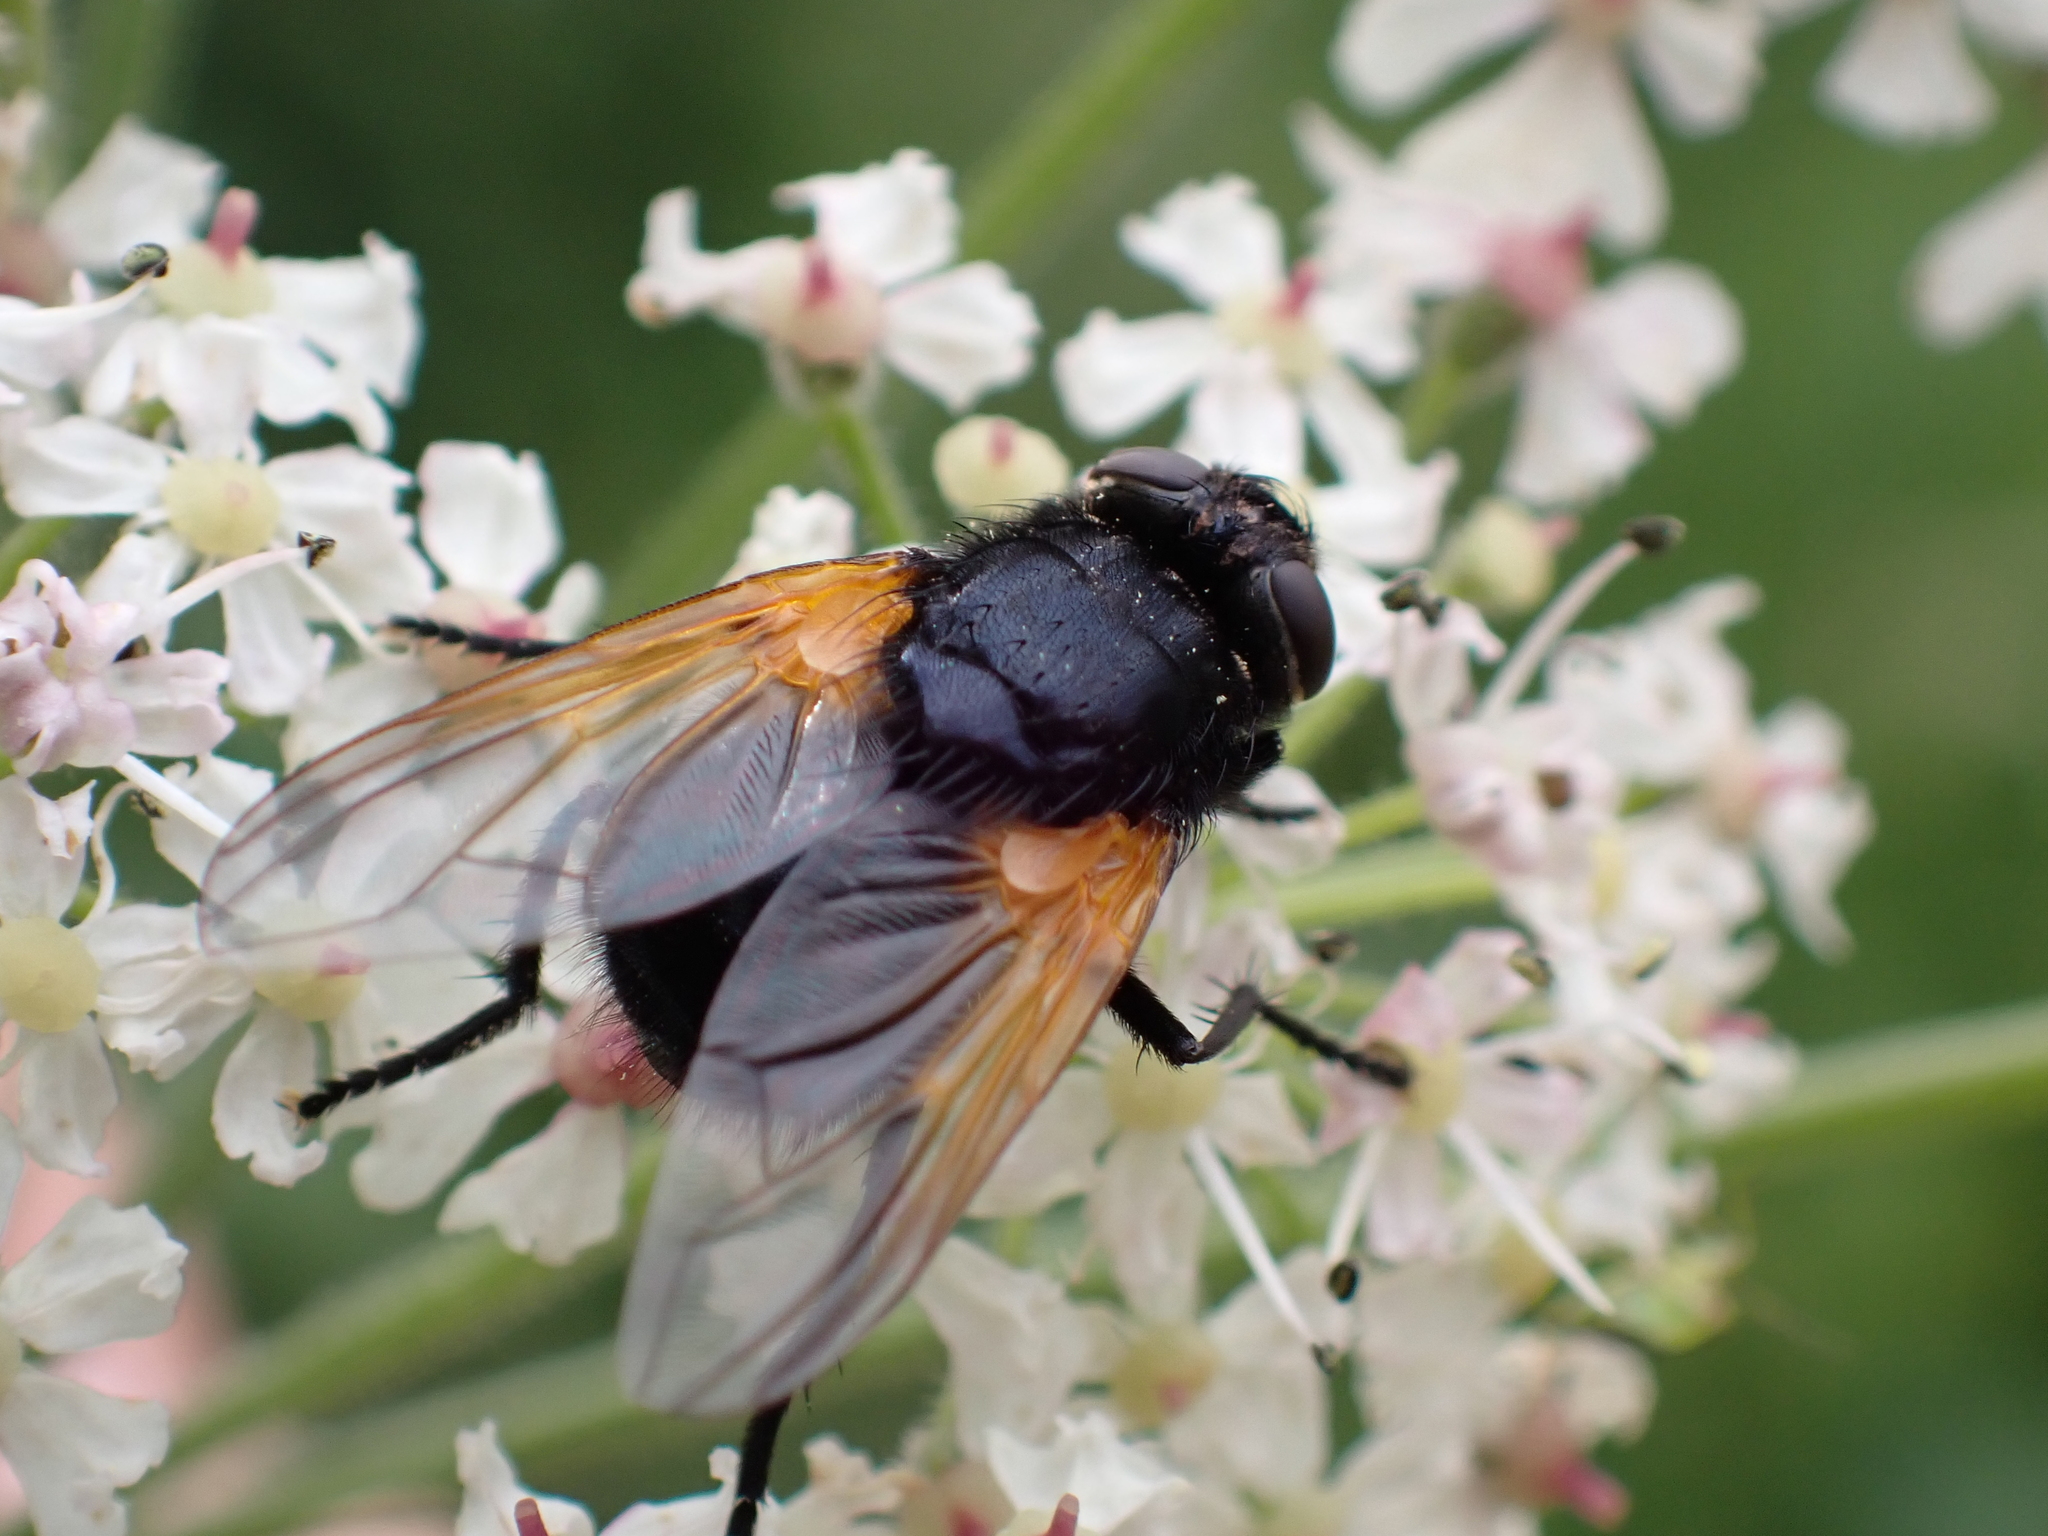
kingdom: Animalia
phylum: Arthropoda
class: Insecta
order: Diptera
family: Muscidae
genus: Mesembrina
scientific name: Mesembrina meridiana
